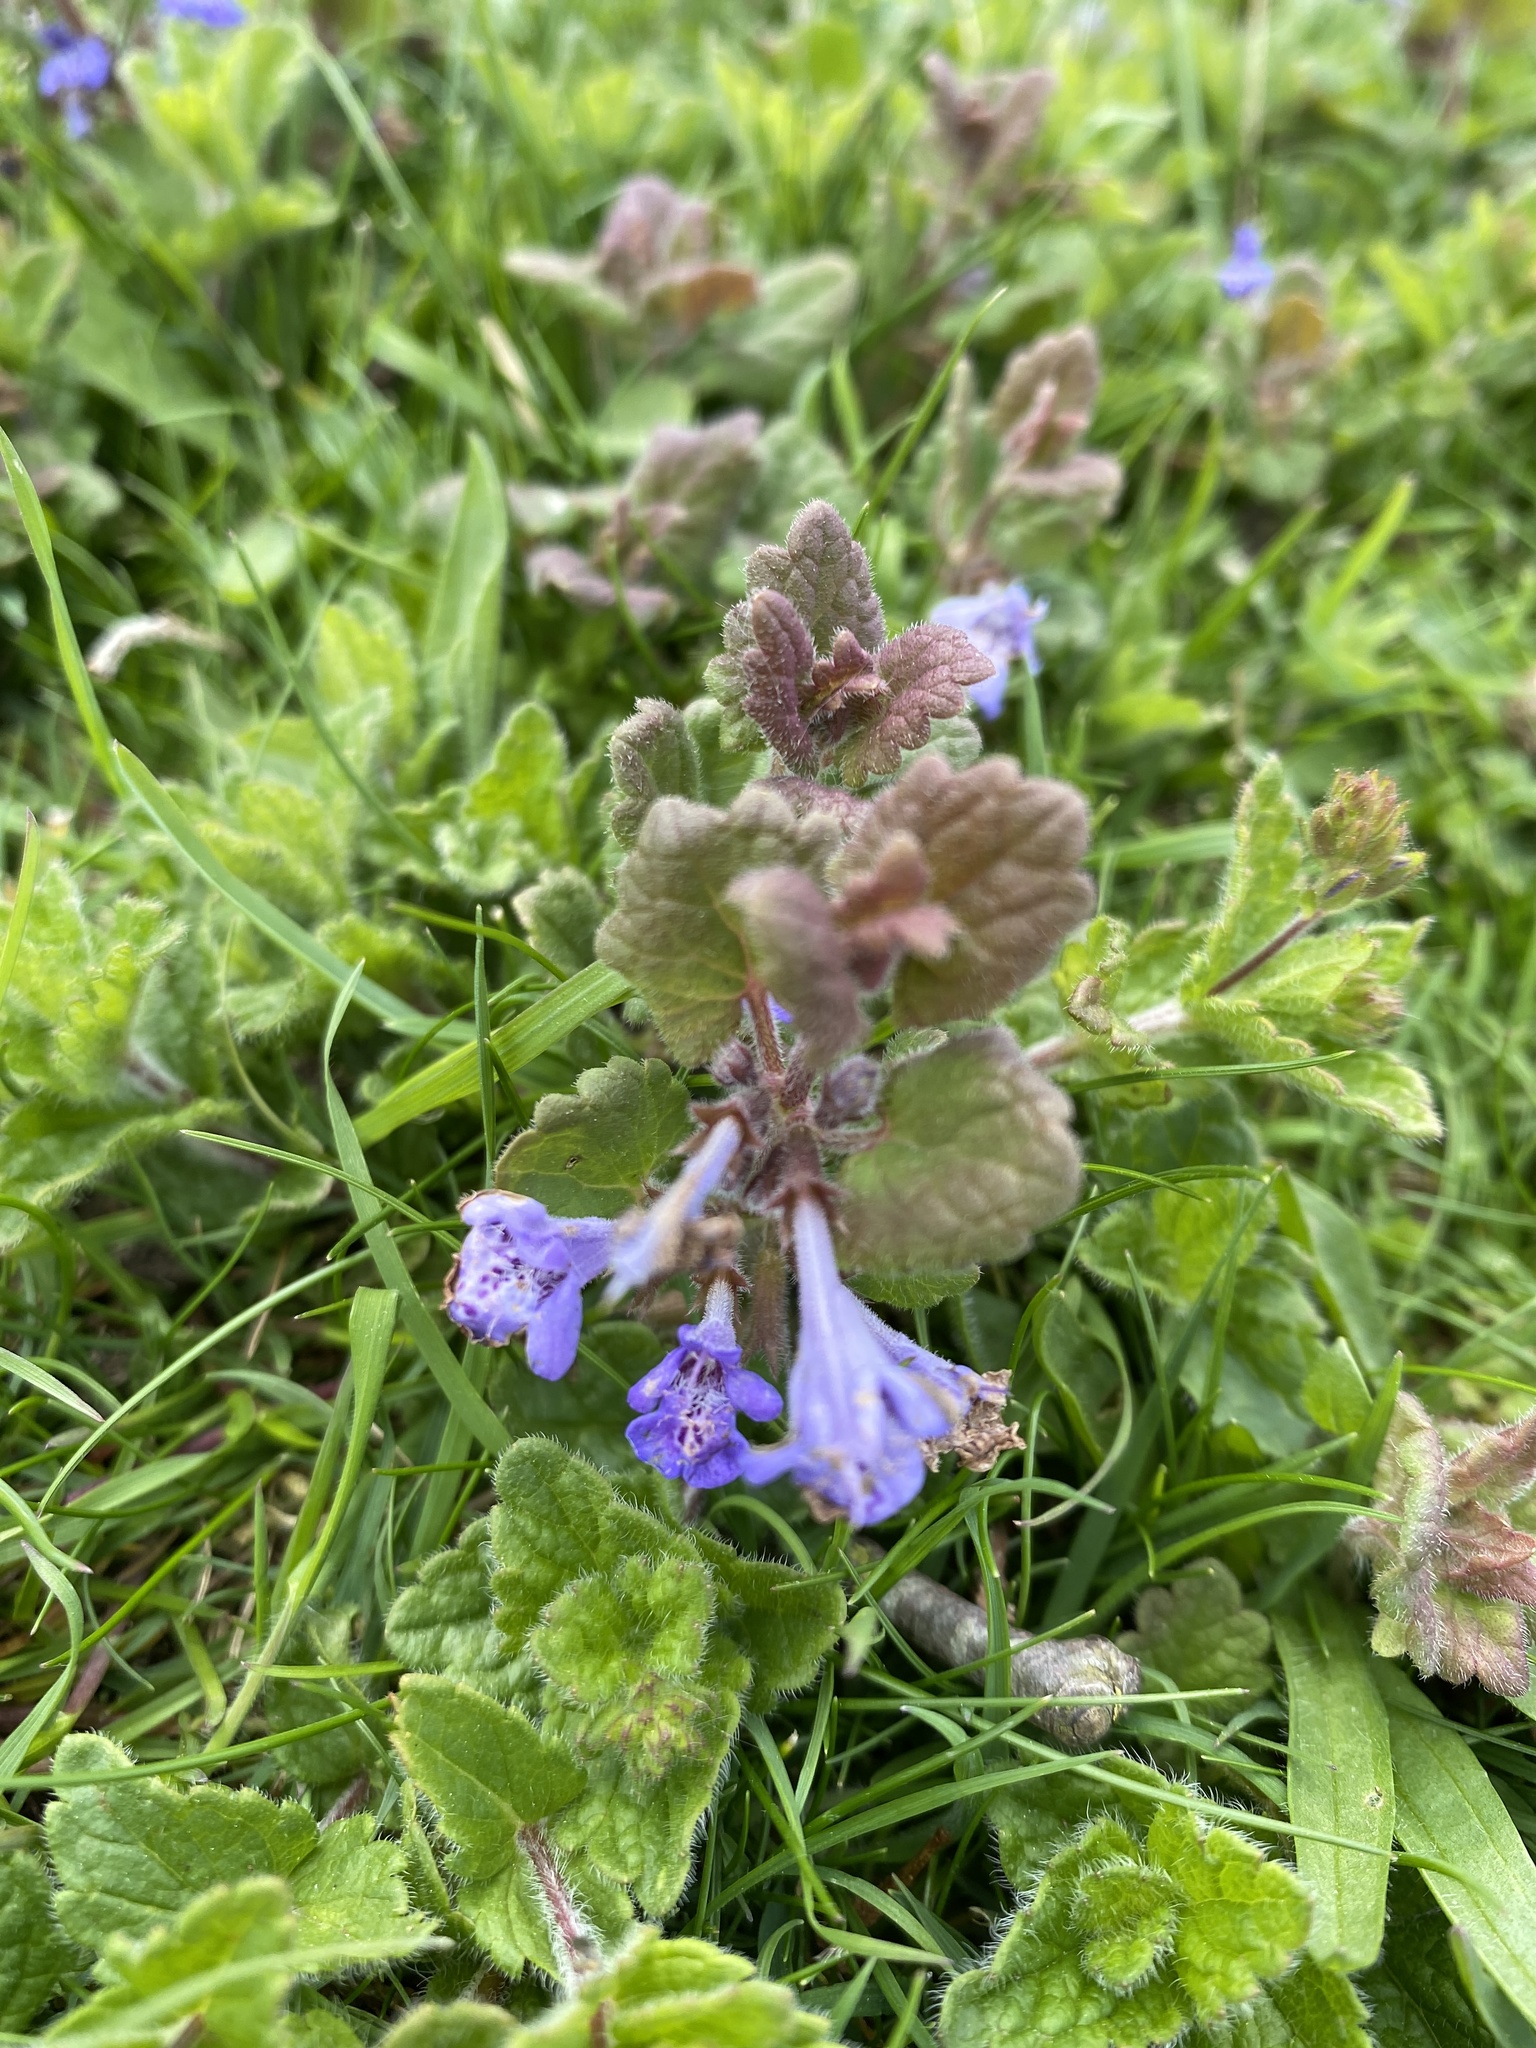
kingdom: Plantae
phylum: Tracheophyta
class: Magnoliopsida
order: Lamiales
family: Lamiaceae
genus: Glechoma
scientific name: Glechoma hederacea
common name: Ground ivy
